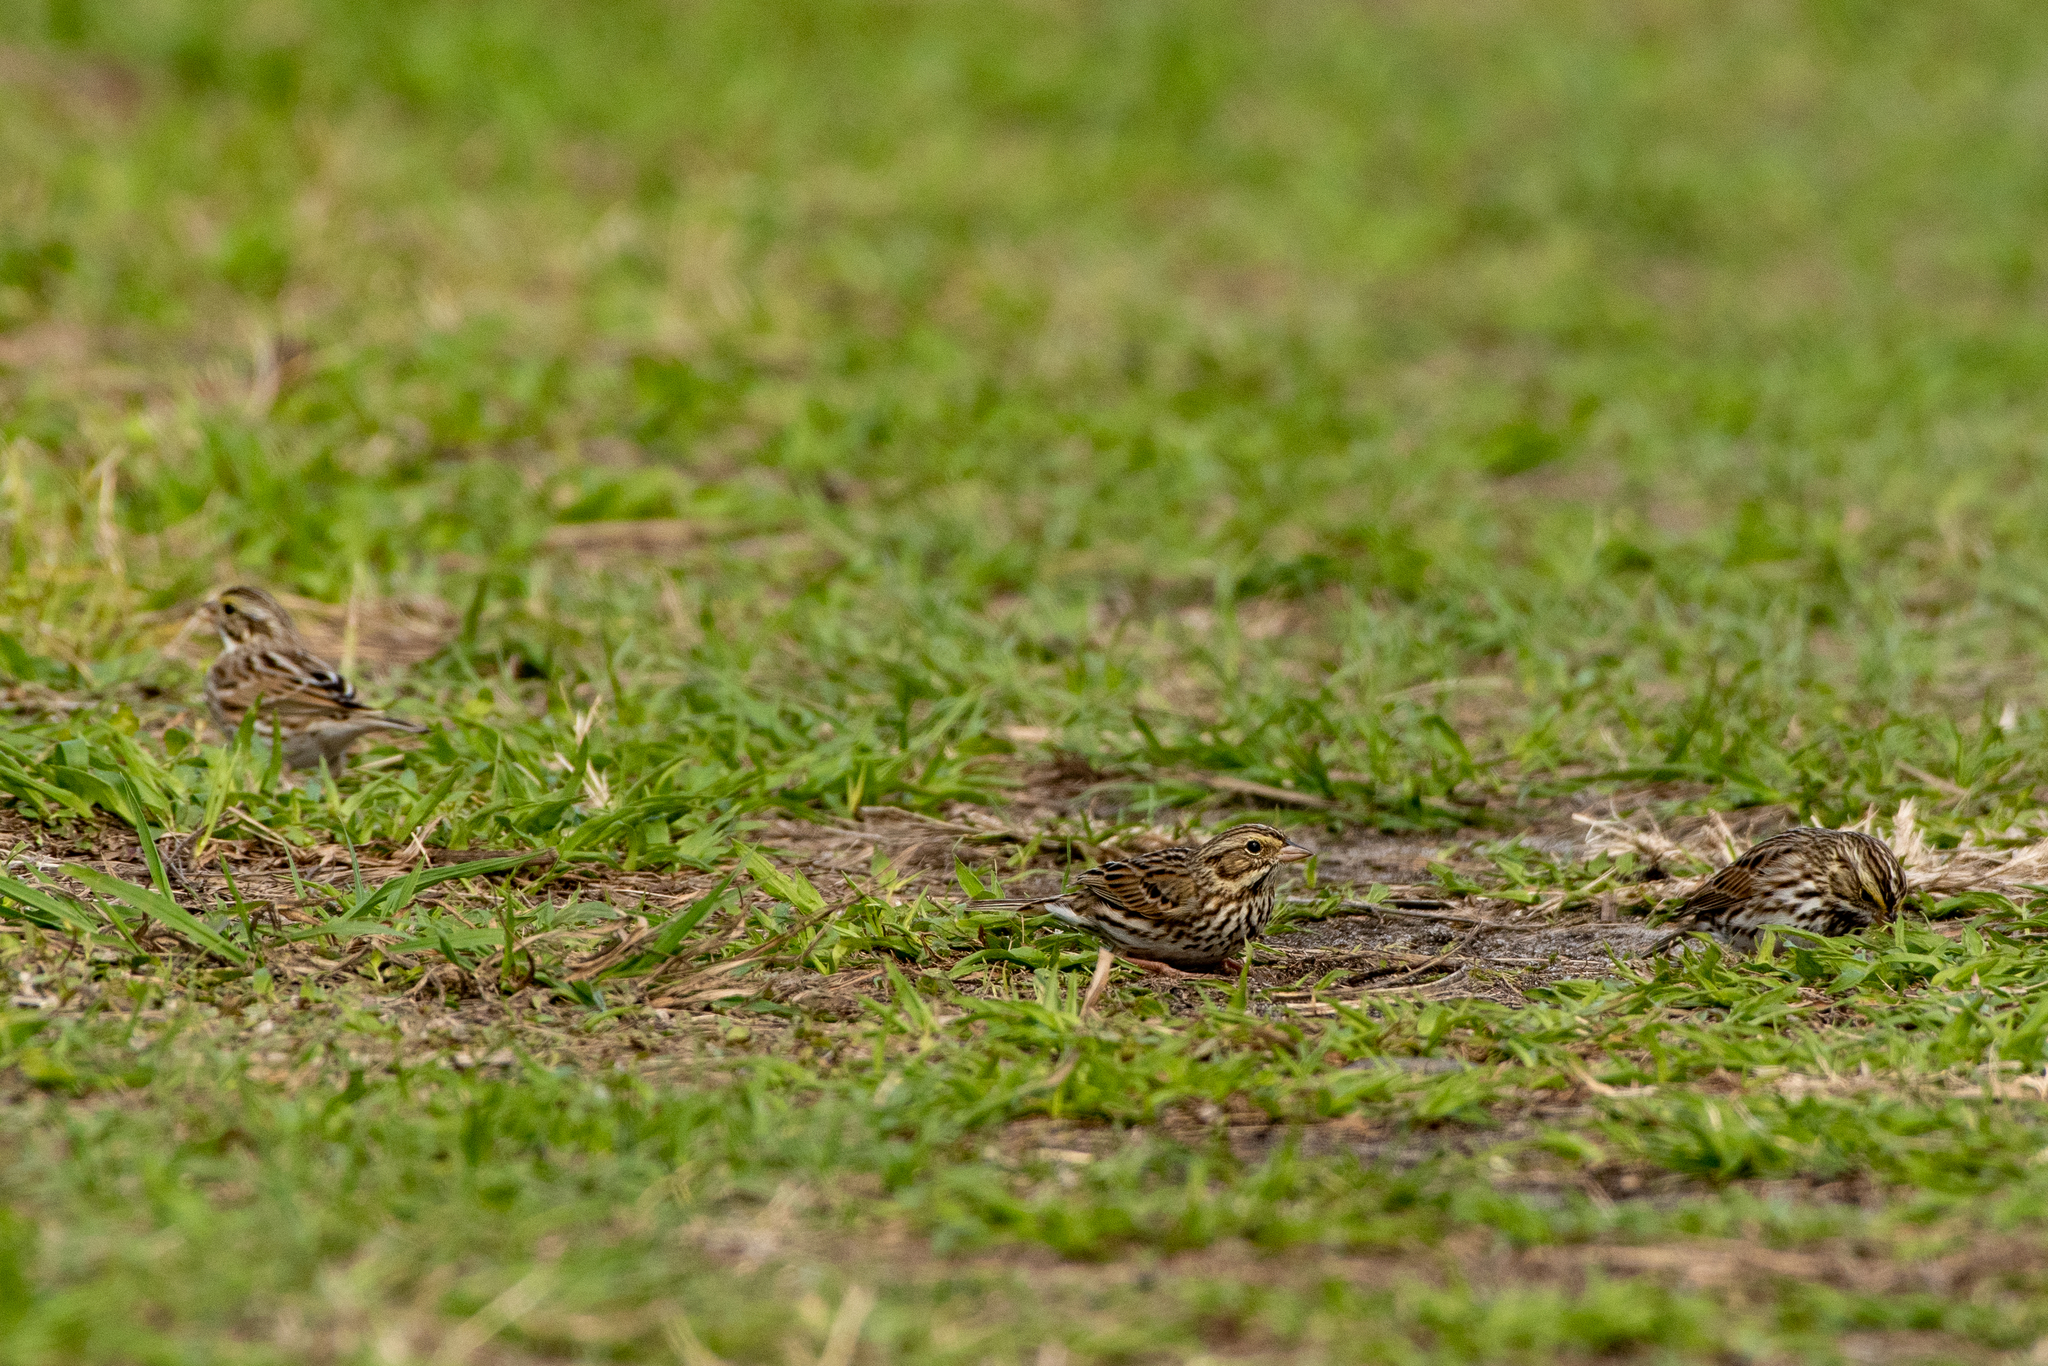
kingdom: Animalia
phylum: Chordata
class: Aves
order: Passeriformes
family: Passerellidae
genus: Passerculus
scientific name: Passerculus sandwichensis
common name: Savannah sparrow
